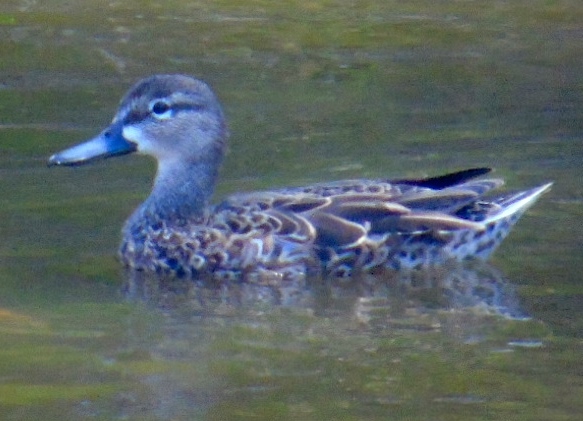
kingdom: Animalia
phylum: Chordata
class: Aves
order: Anseriformes
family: Anatidae
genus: Spatula
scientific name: Spatula discors
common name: Blue-winged teal
